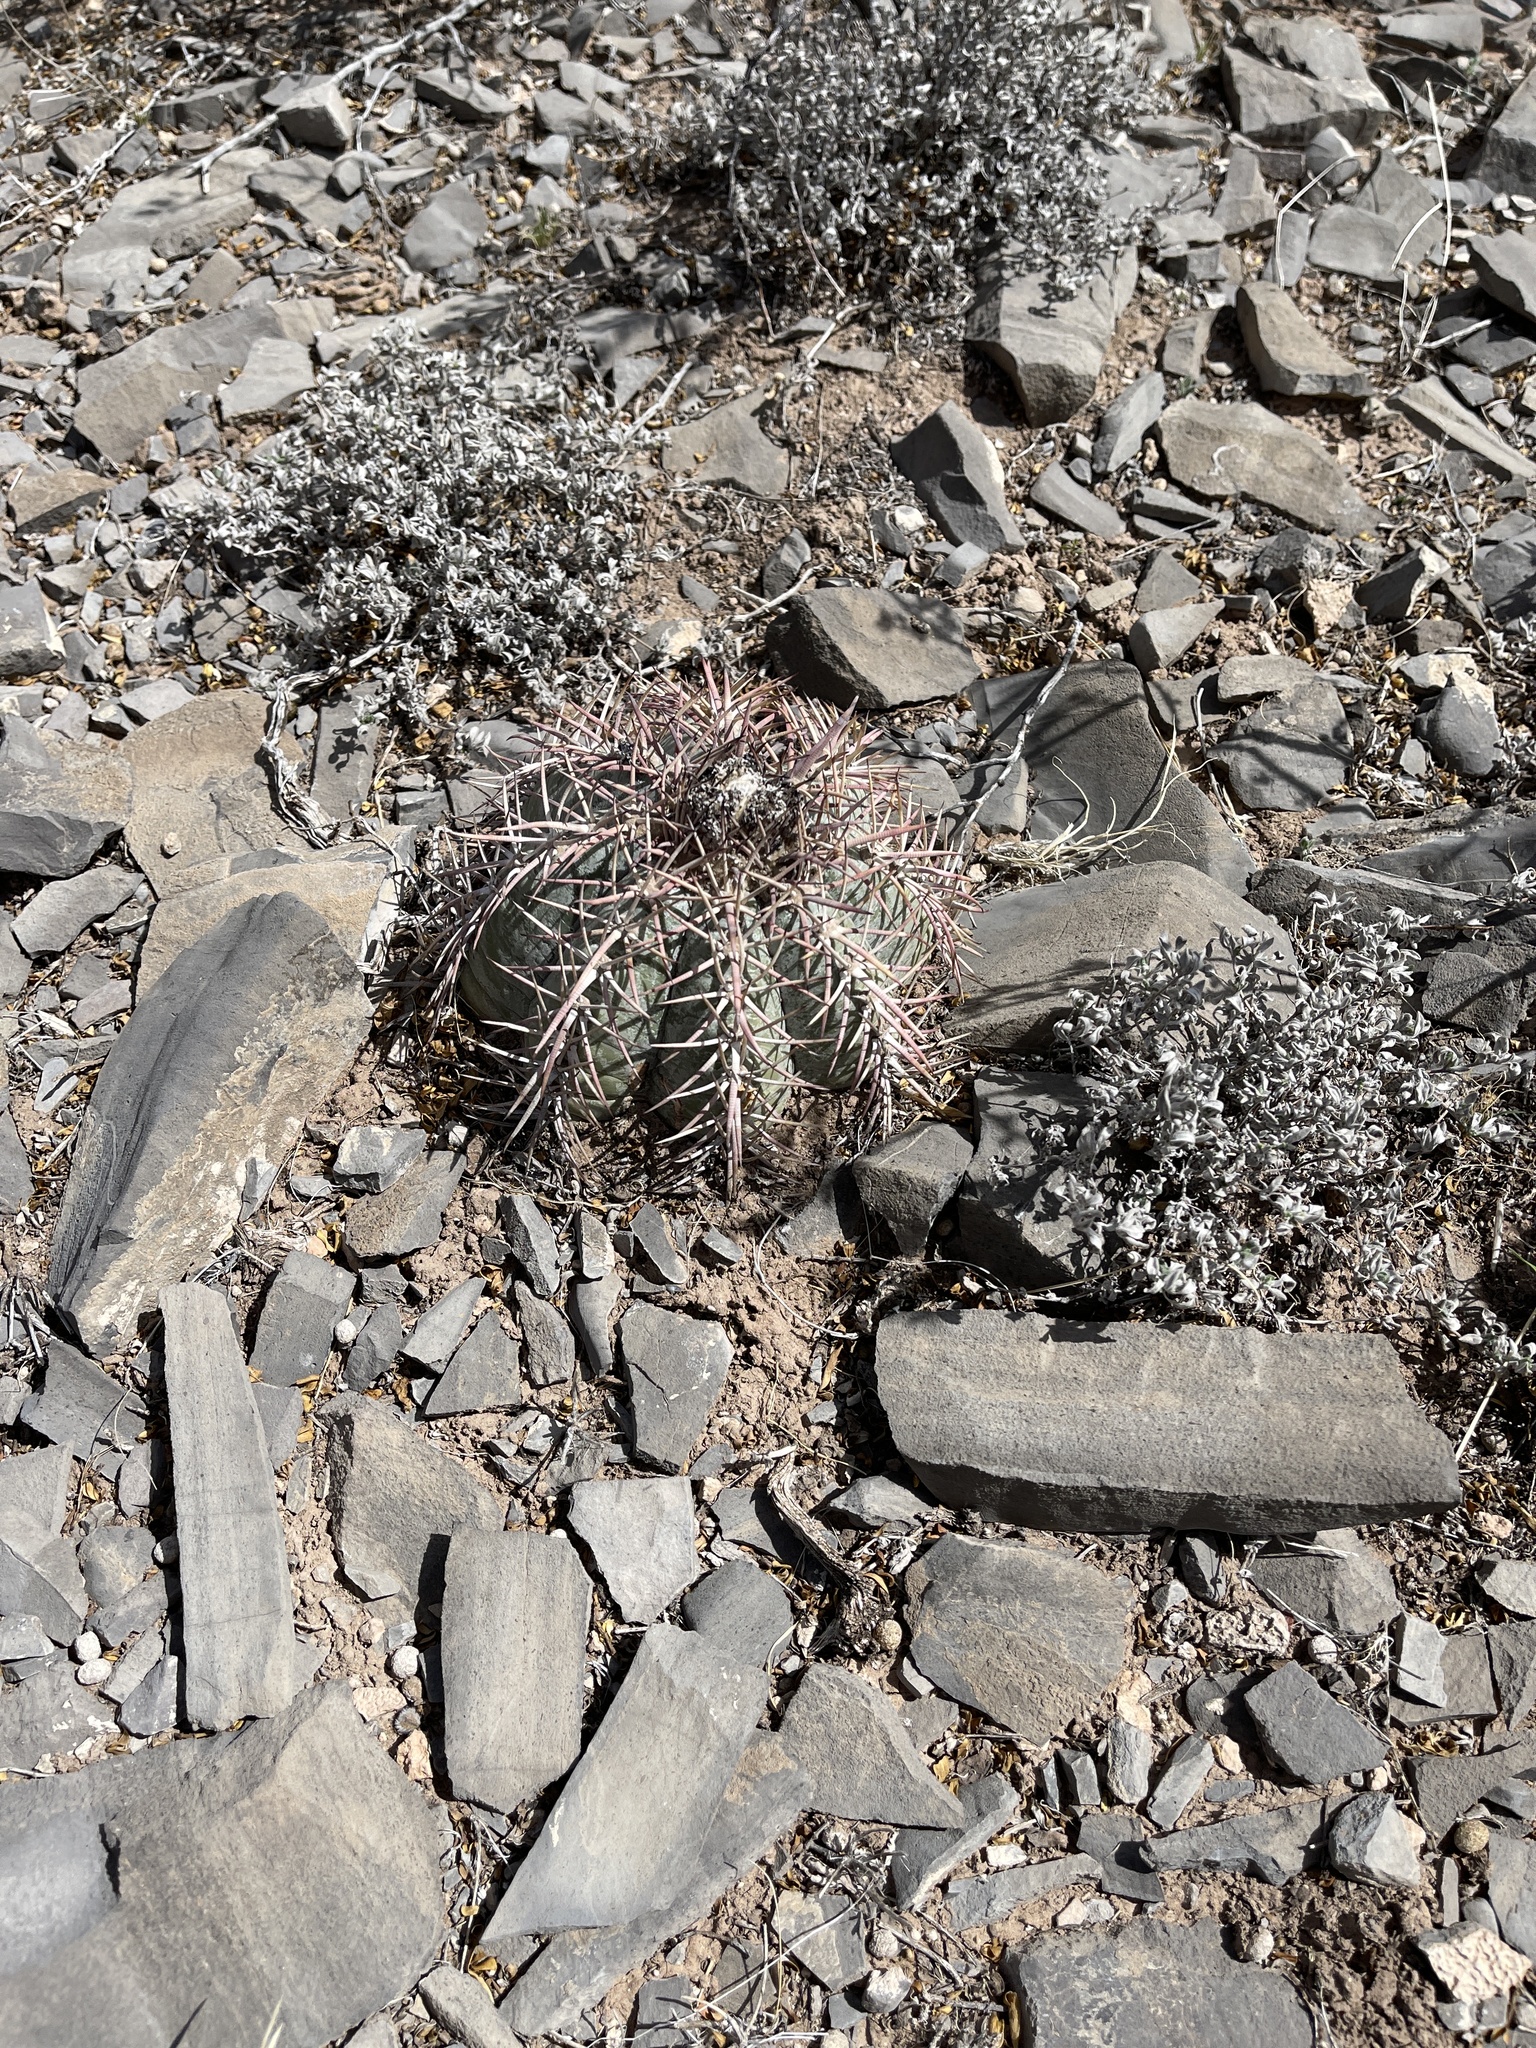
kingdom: Plantae
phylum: Tracheophyta
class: Magnoliopsida
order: Caryophyllales
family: Cactaceae
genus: Echinocactus
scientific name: Echinocactus horizonthalonius
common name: Devilshead
